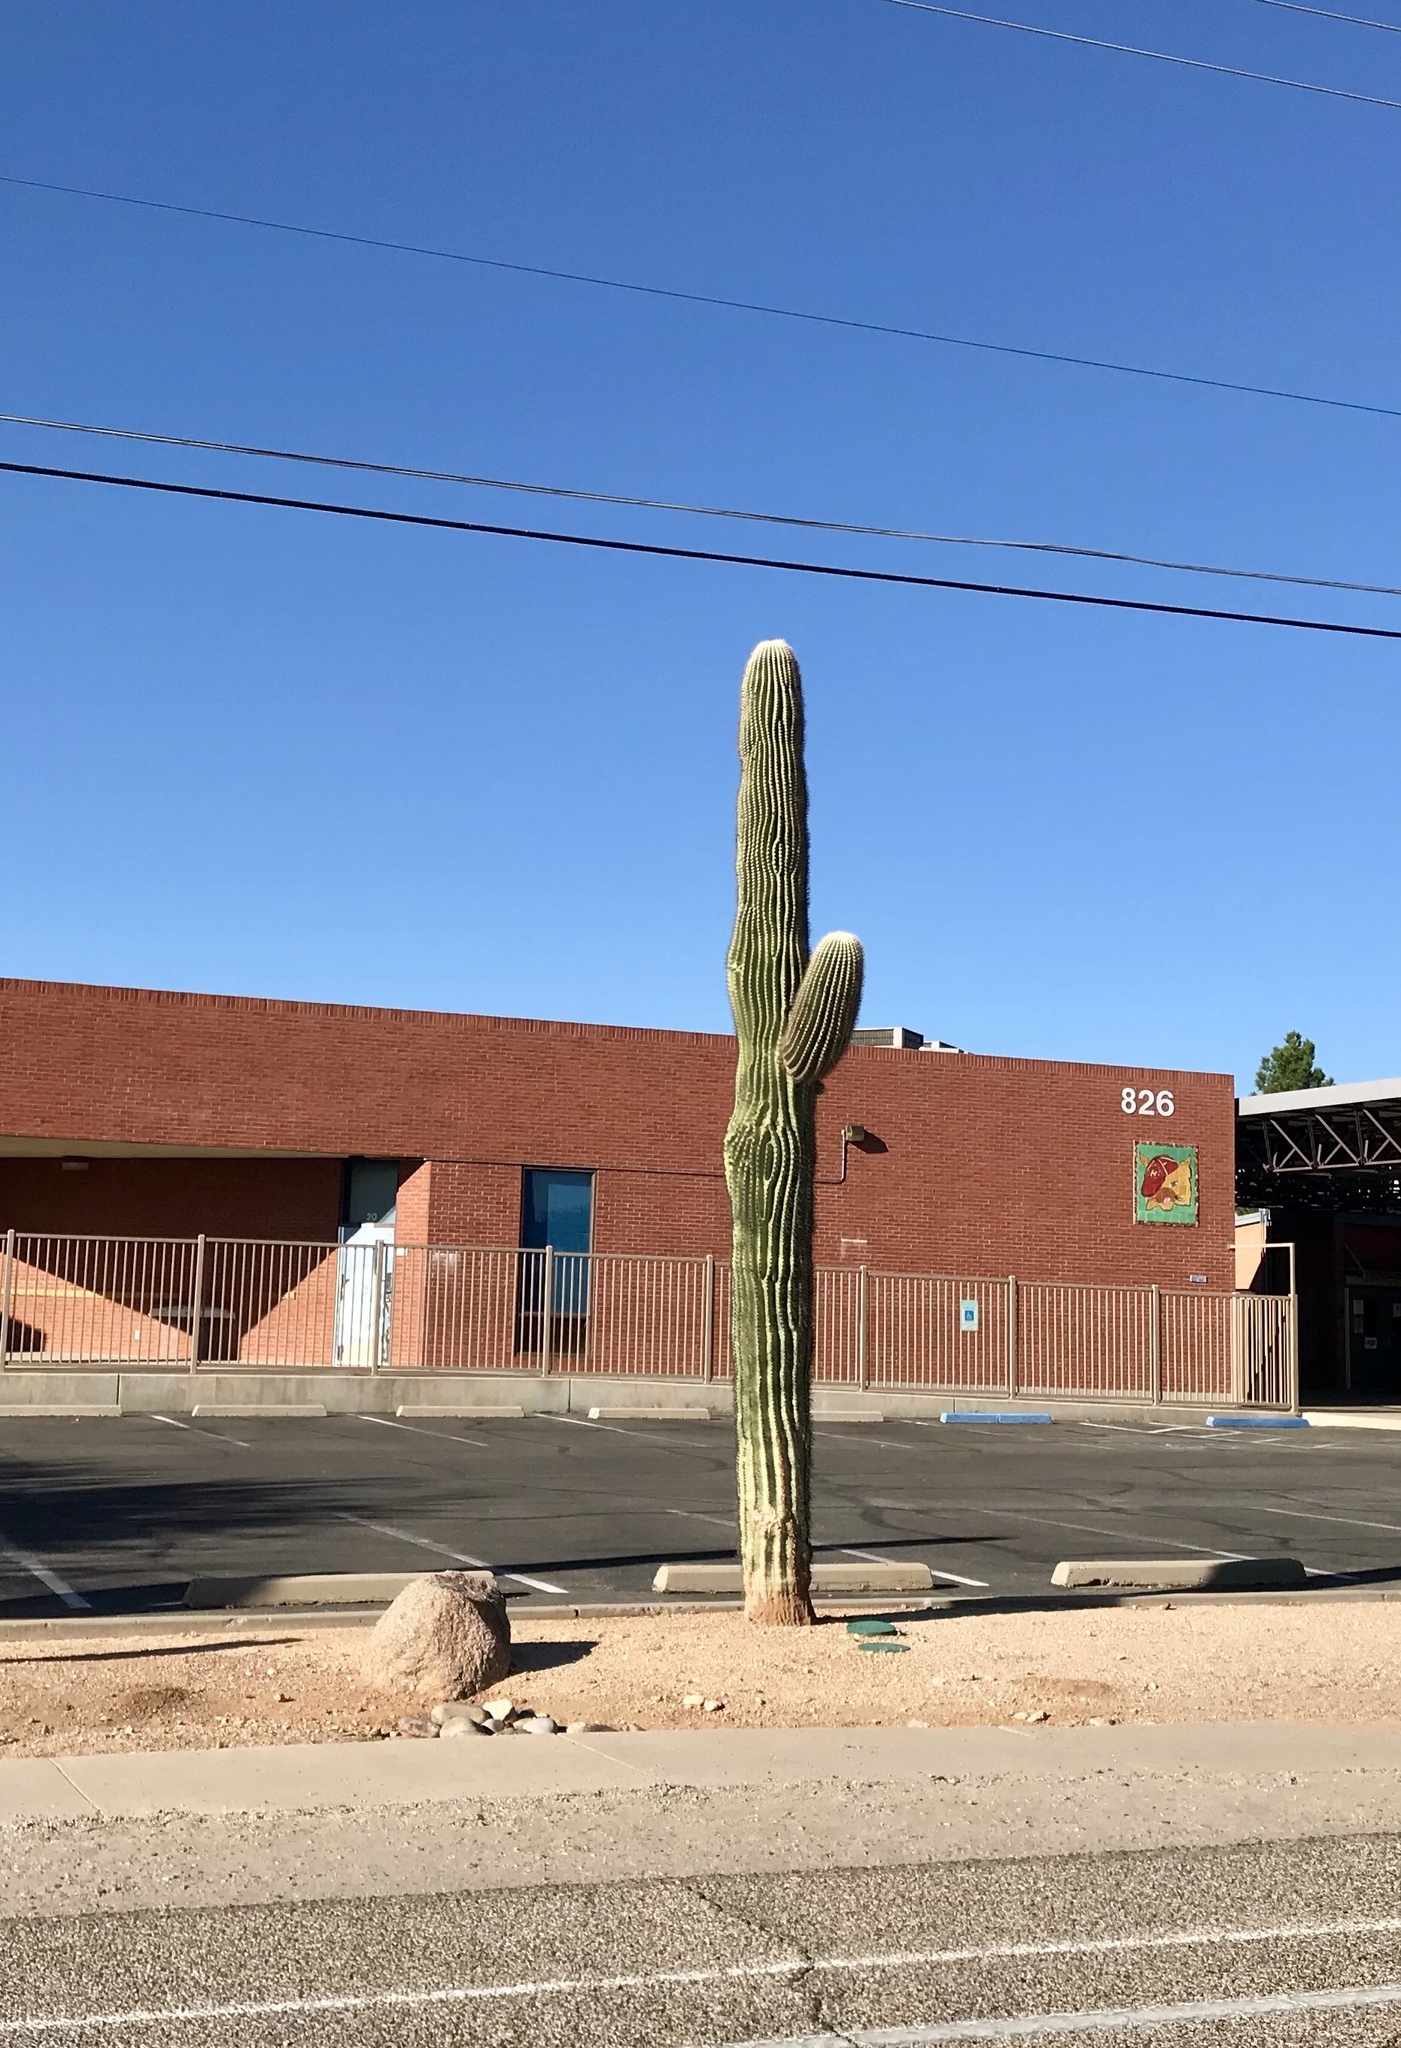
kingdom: Plantae
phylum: Tracheophyta
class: Magnoliopsida
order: Caryophyllales
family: Cactaceae
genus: Carnegiea
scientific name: Carnegiea gigantea
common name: Saguaro
